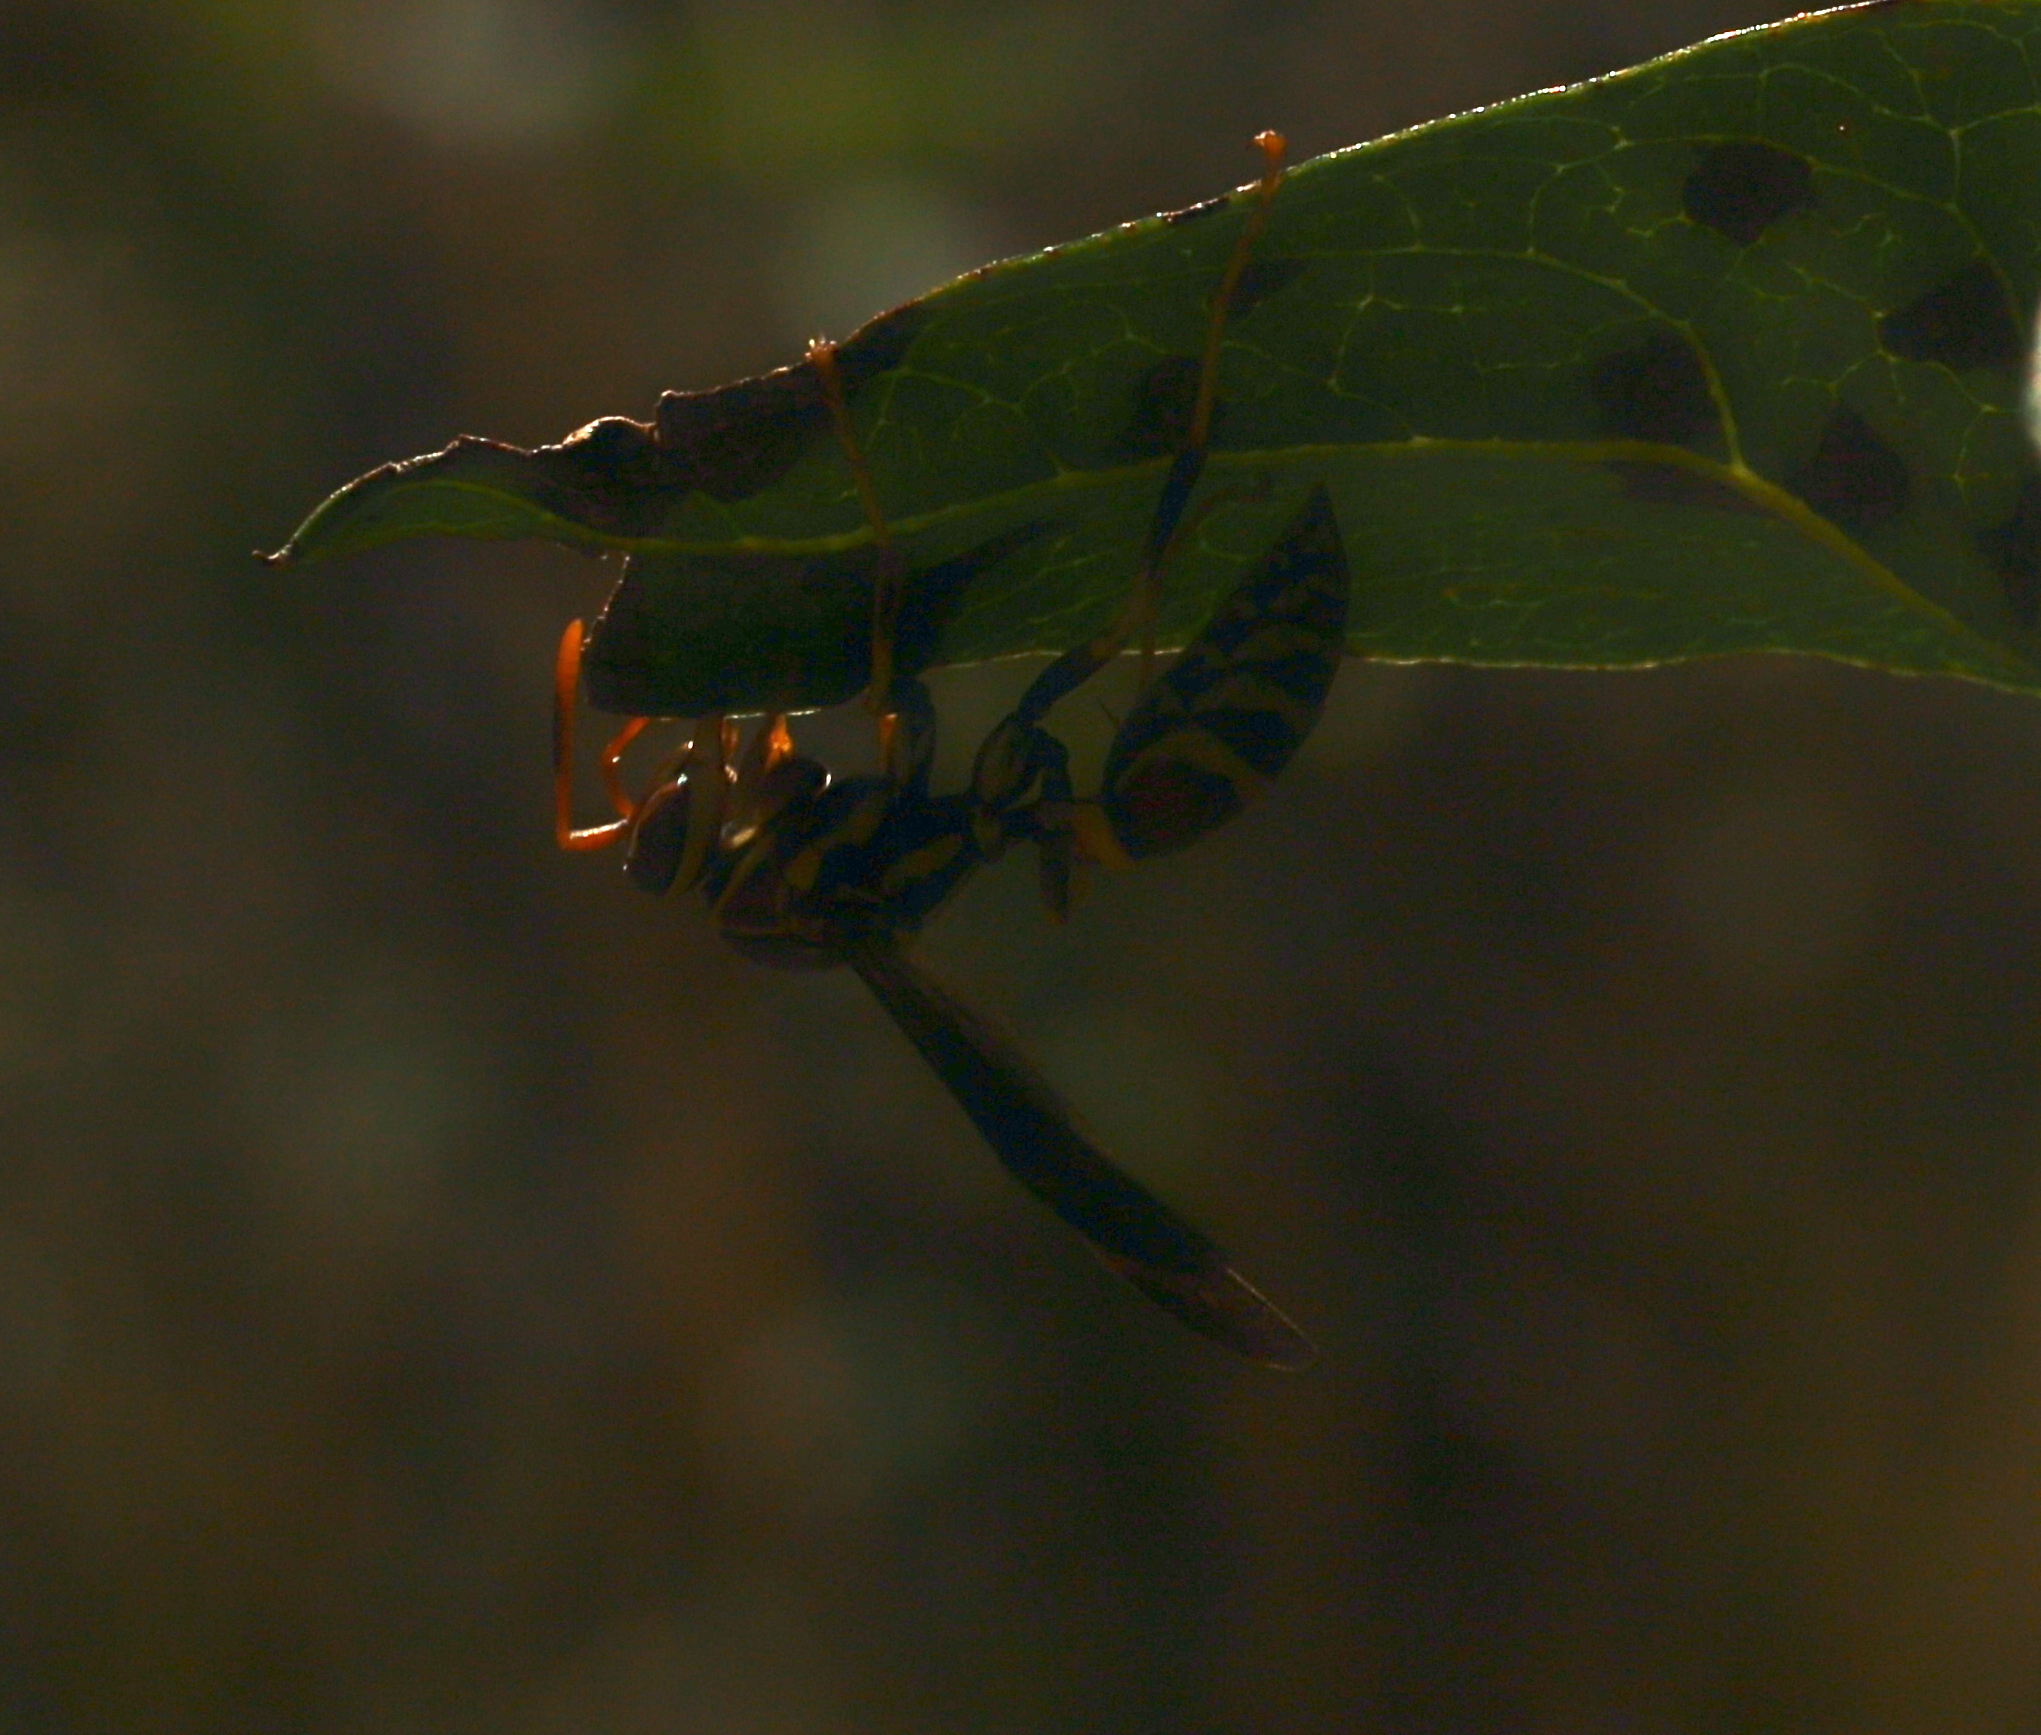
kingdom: Animalia
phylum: Arthropoda
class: Insecta
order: Hymenoptera
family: Eumenidae
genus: Polistes
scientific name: Polistes exclamans
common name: Paper wasp
